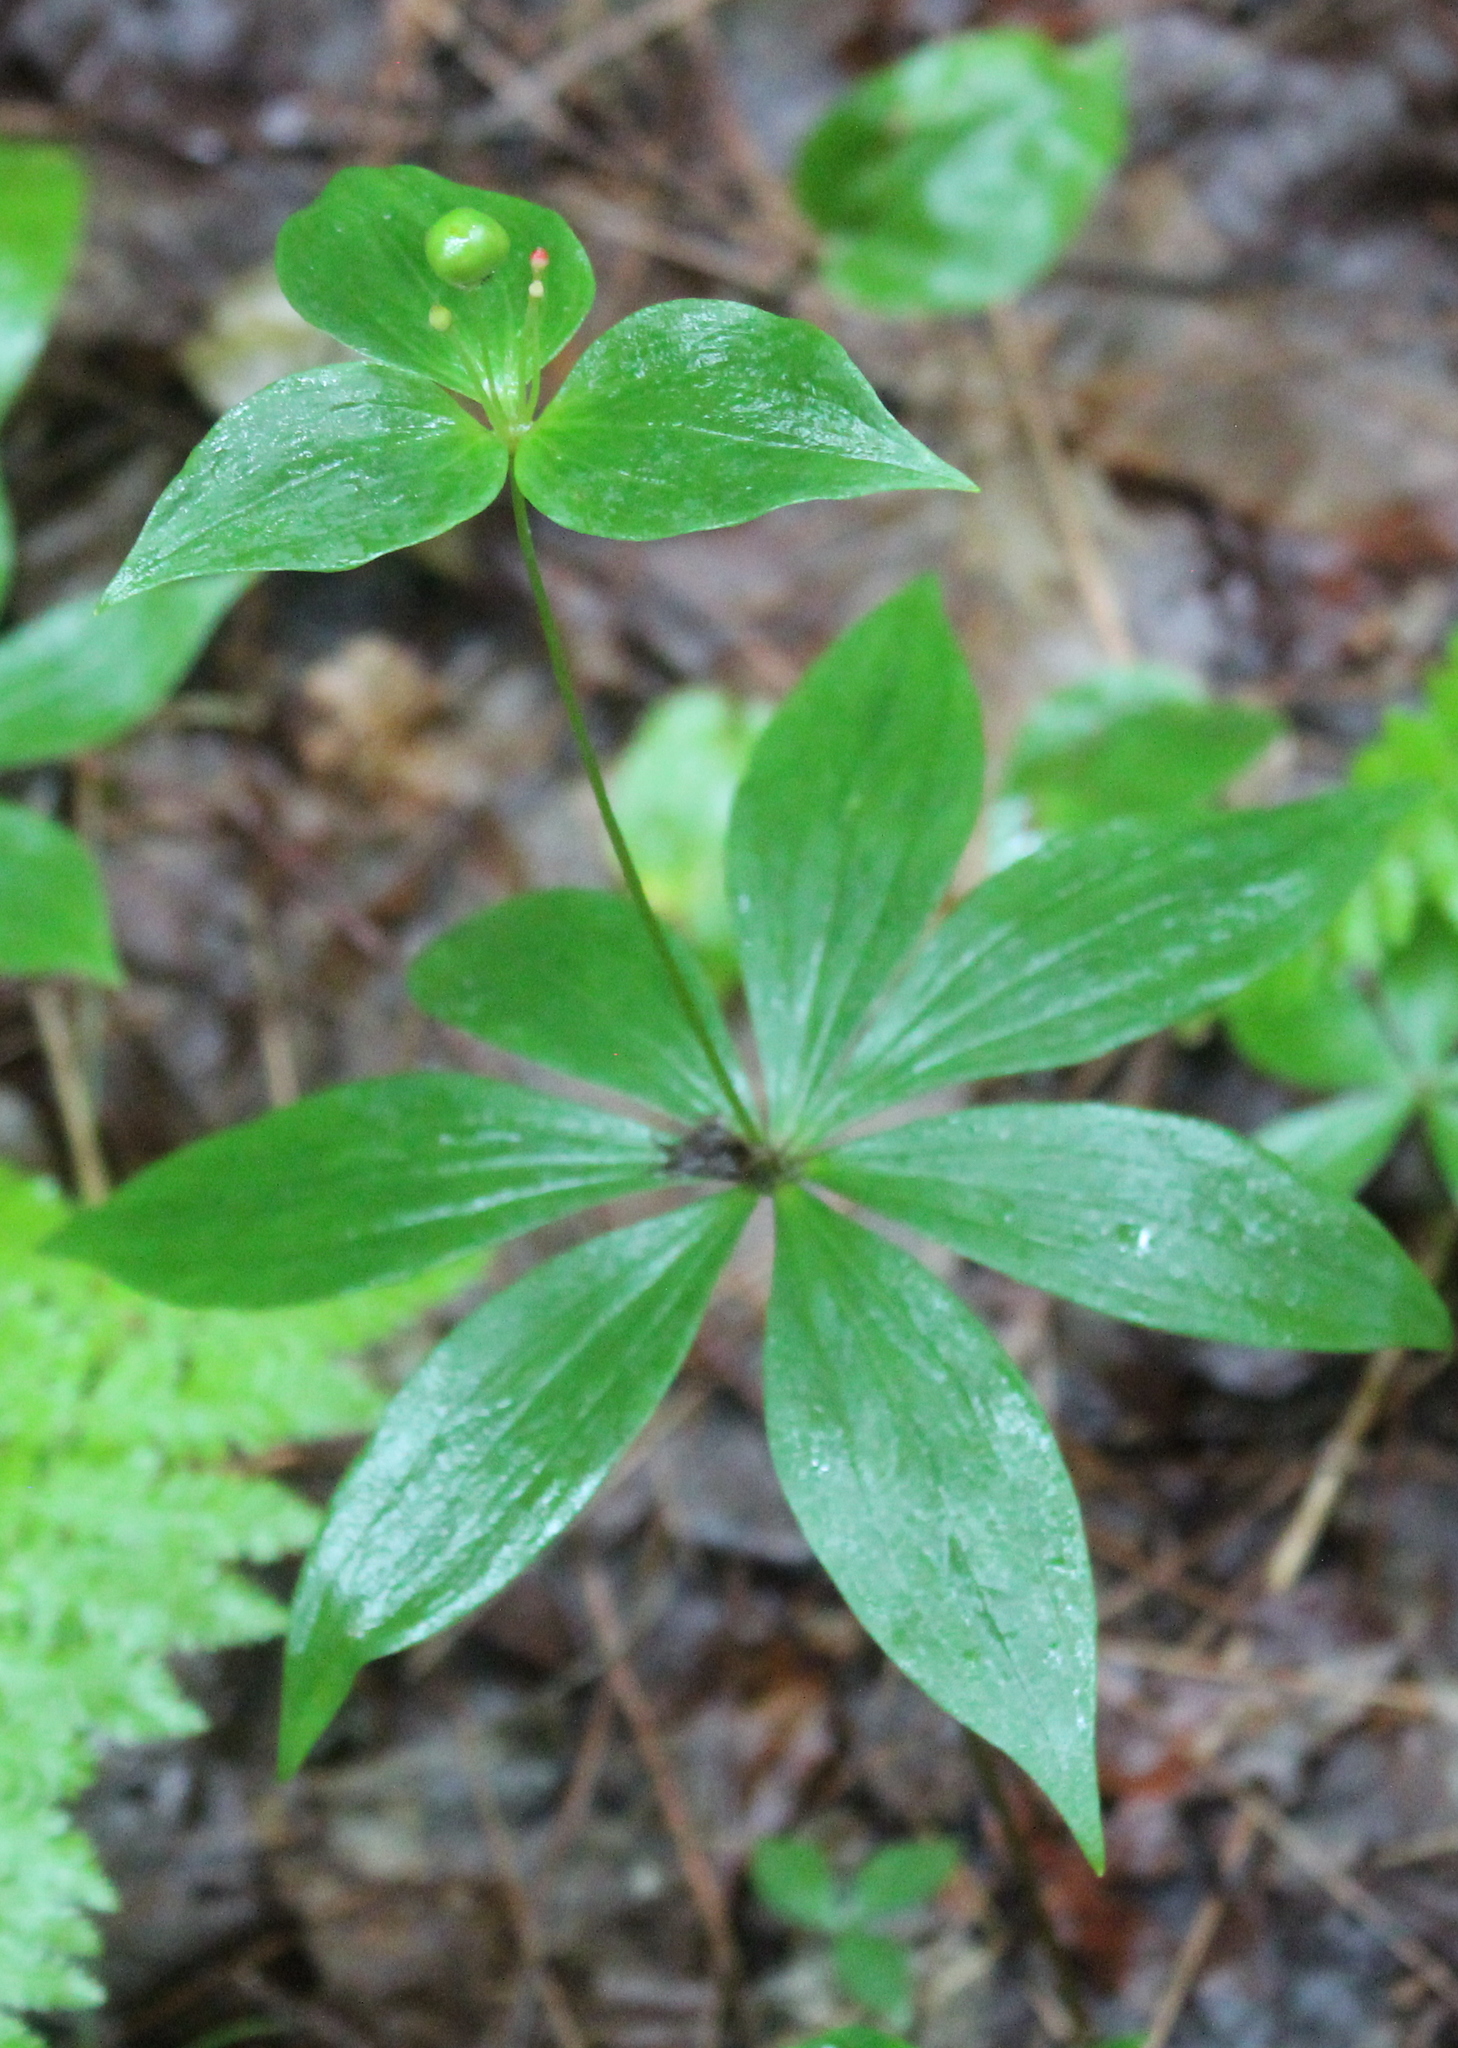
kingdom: Plantae
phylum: Tracheophyta
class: Liliopsida
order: Liliales
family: Liliaceae
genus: Medeola
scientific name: Medeola virginiana
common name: Indian cucumber-root
